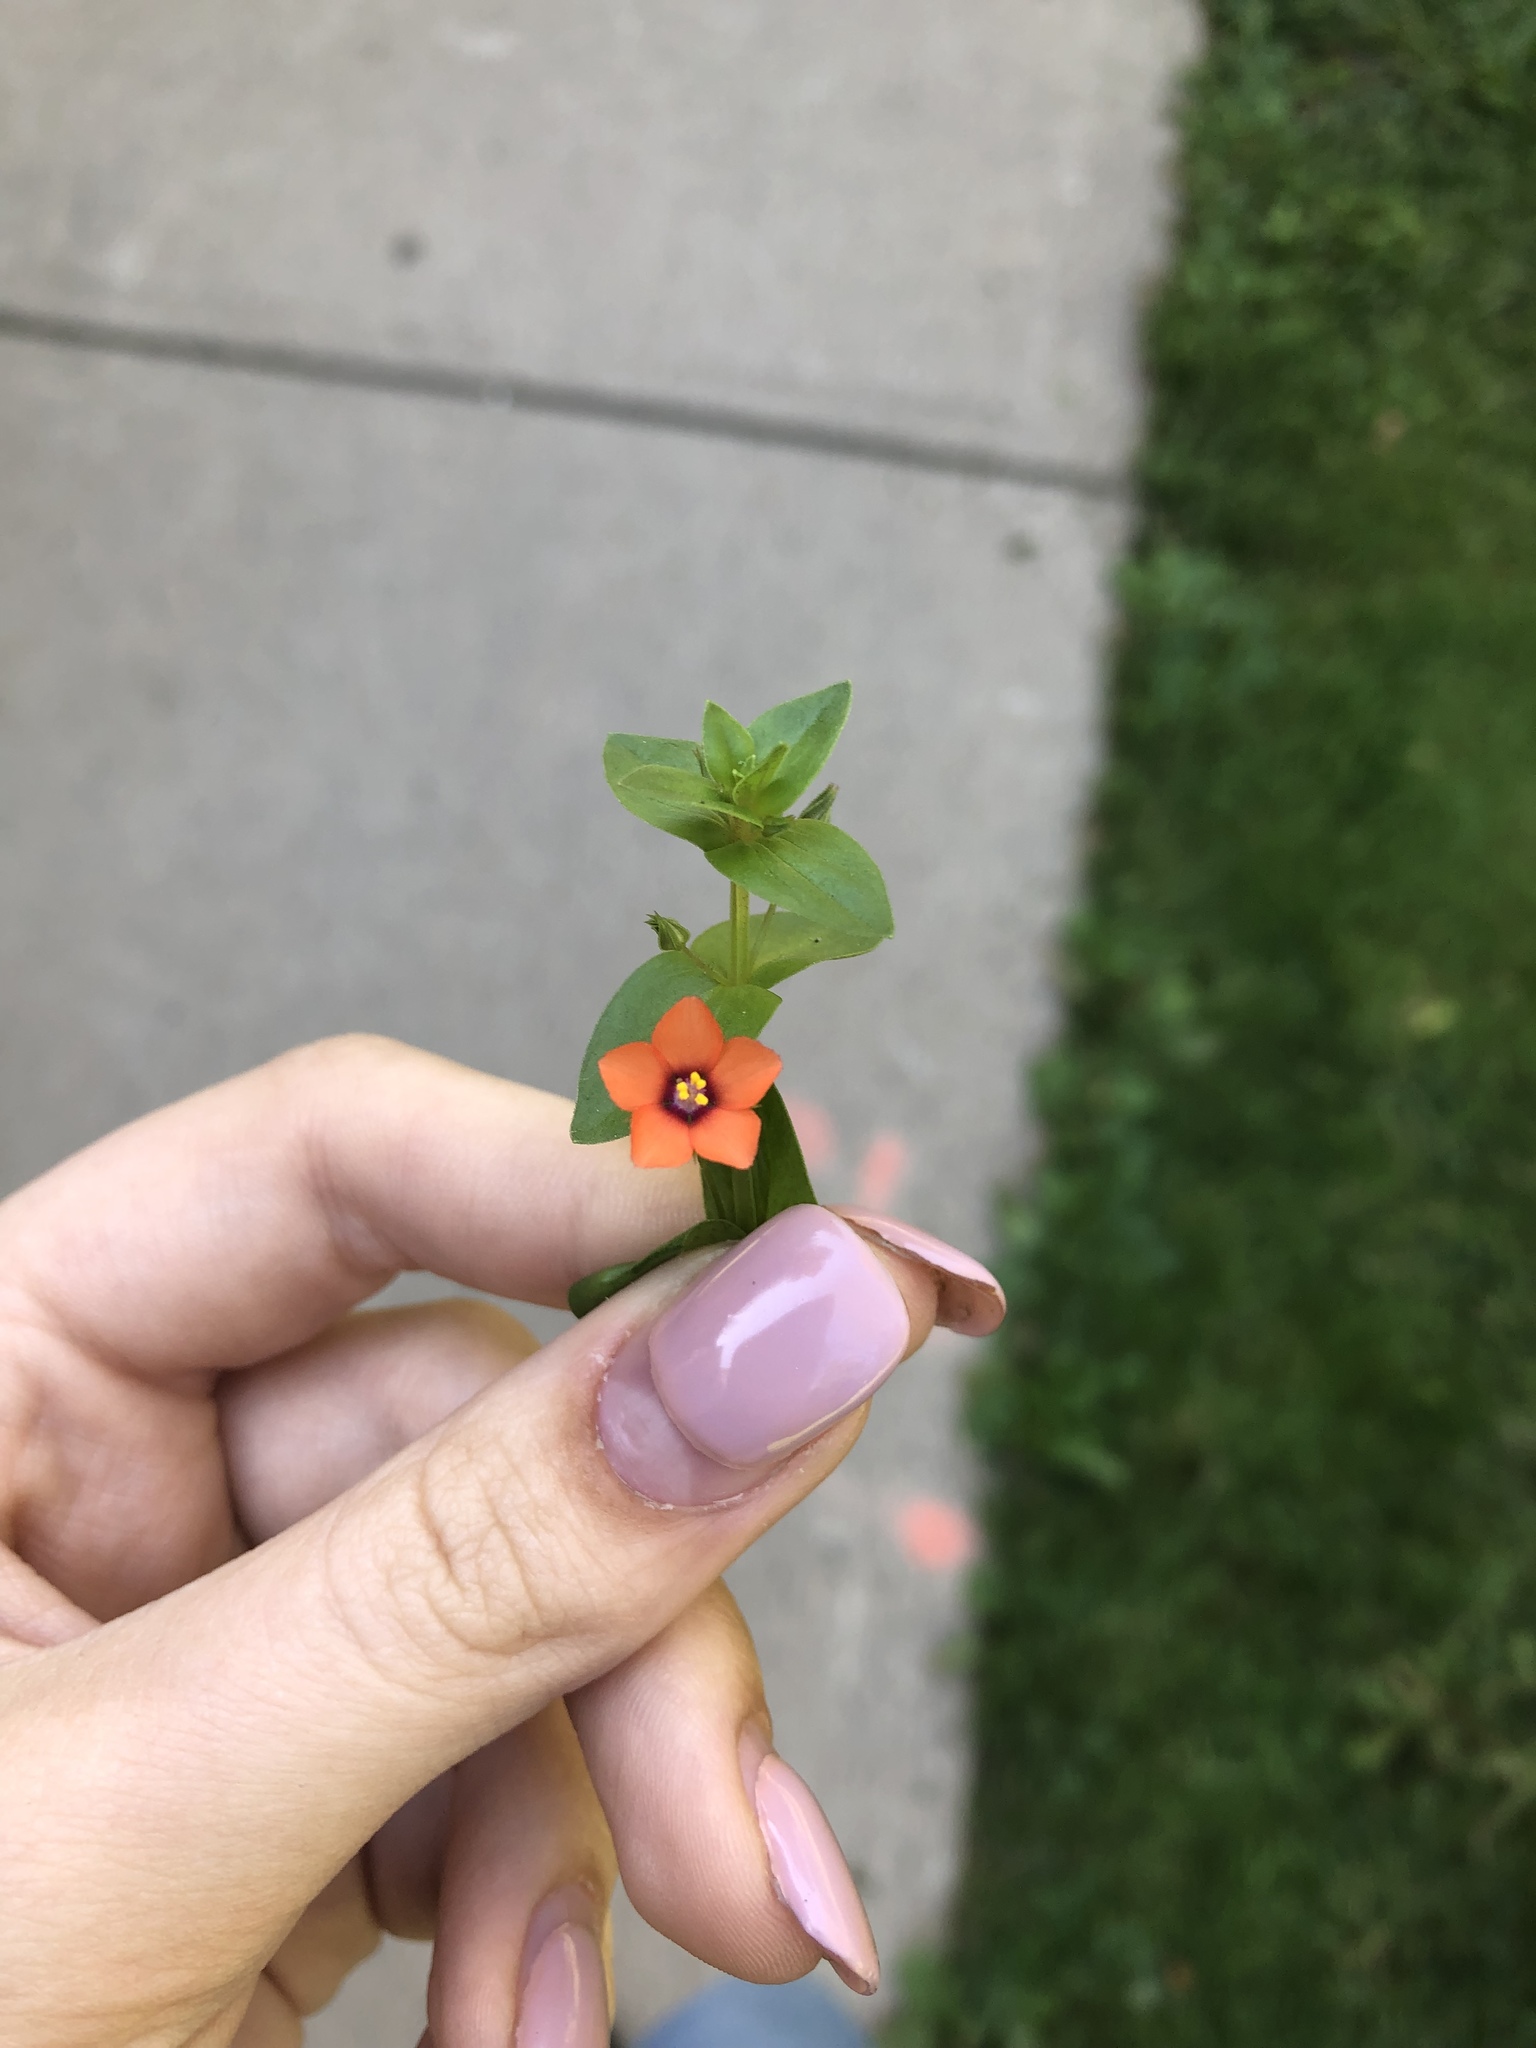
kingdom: Plantae
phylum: Tracheophyta
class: Magnoliopsida
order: Ericales
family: Primulaceae
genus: Lysimachia
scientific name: Lysimachia arvensis
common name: Scarlet pimpernel
